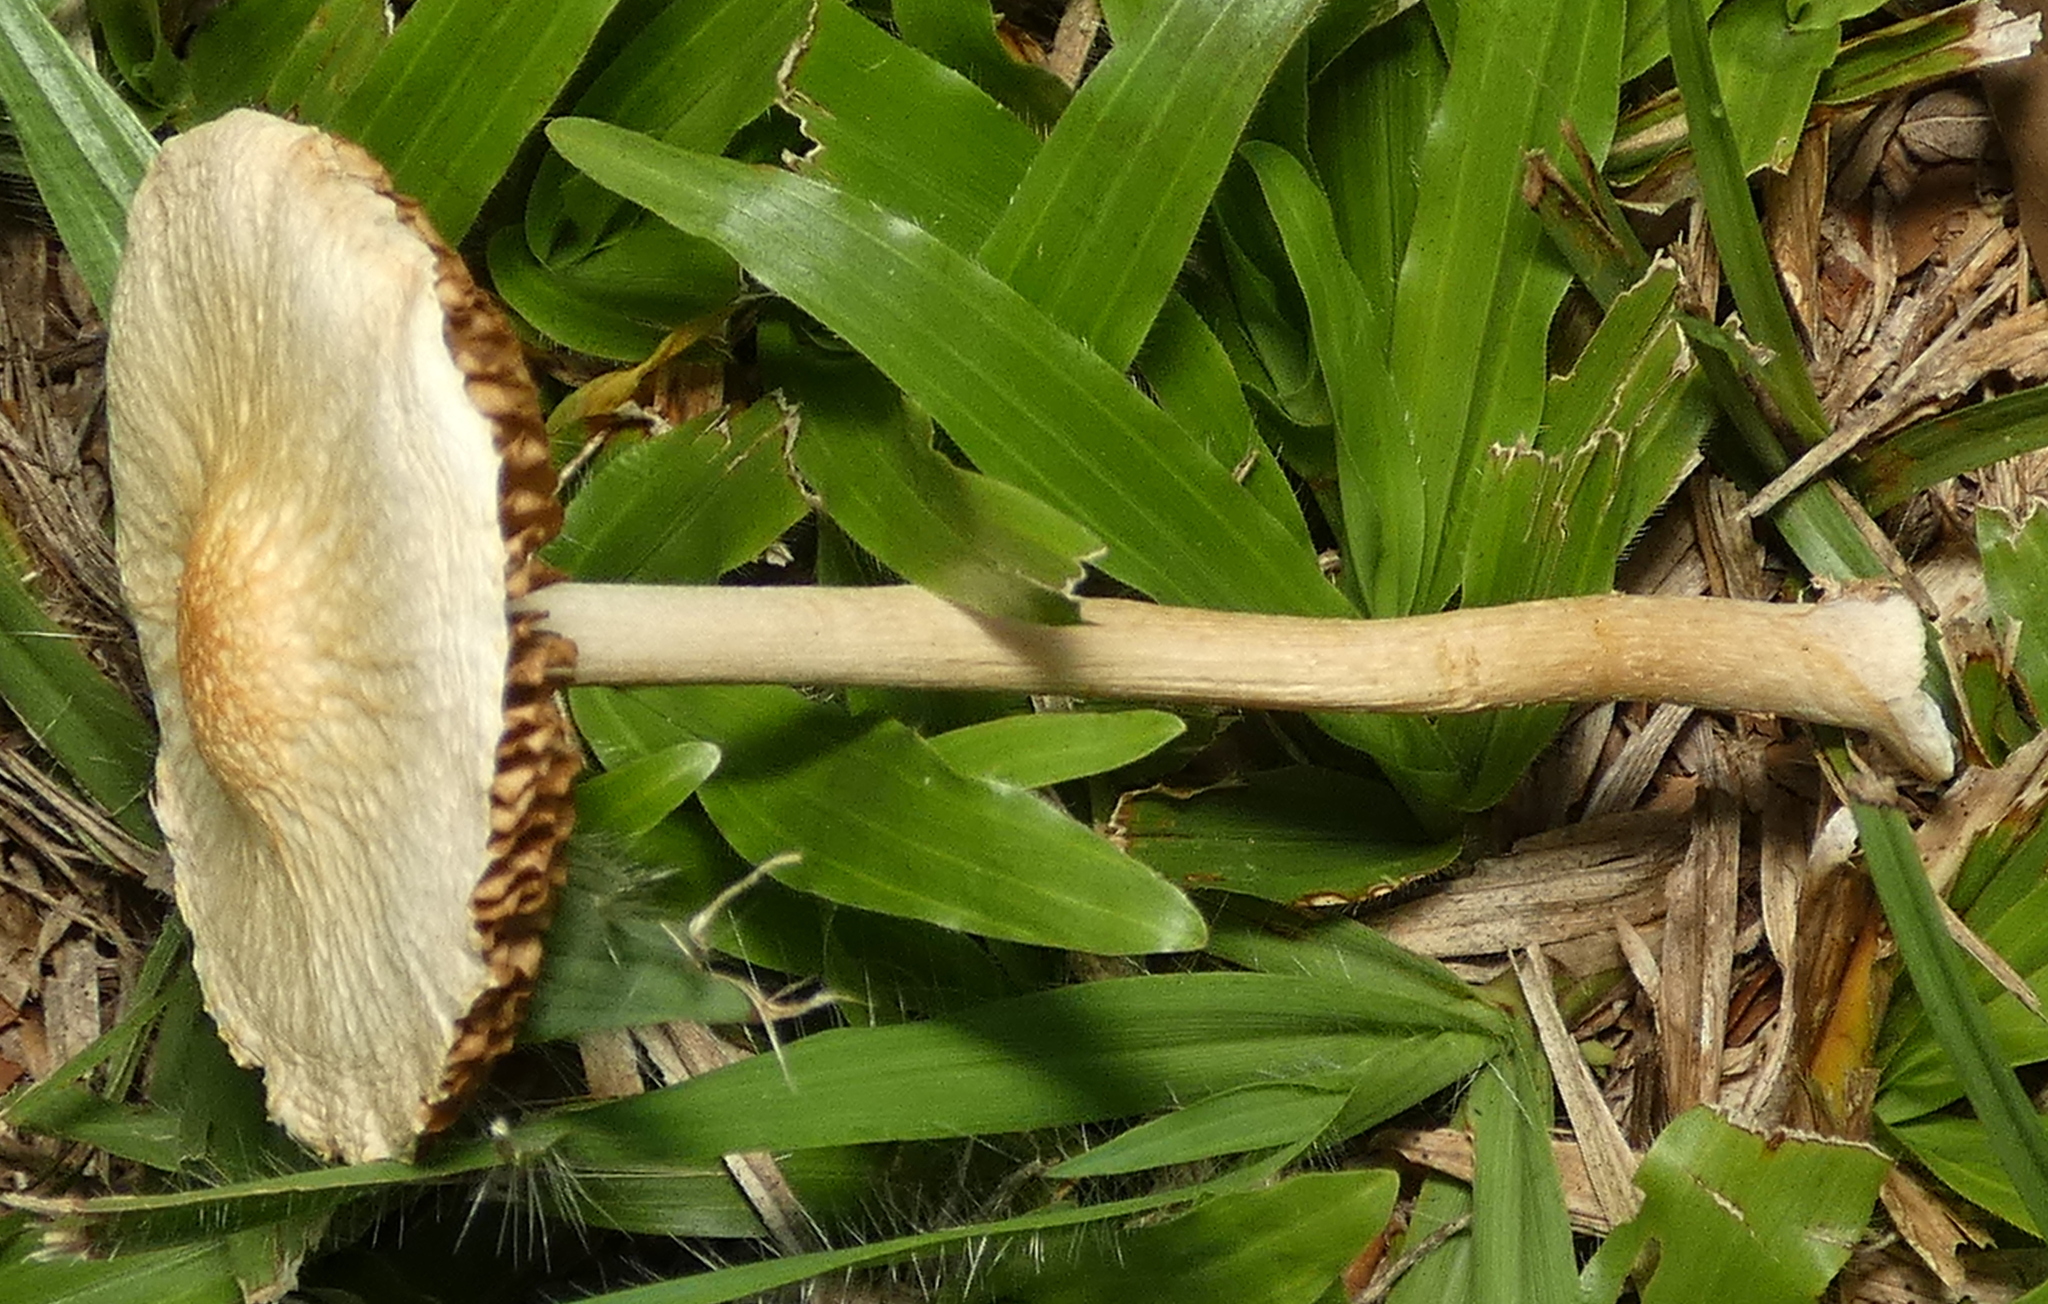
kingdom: Fungi
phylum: Basidiomycota
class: Agaricomycetes
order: Agaricales
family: Strophariaceae
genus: Agrocybe
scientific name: Agrocybe retigera
